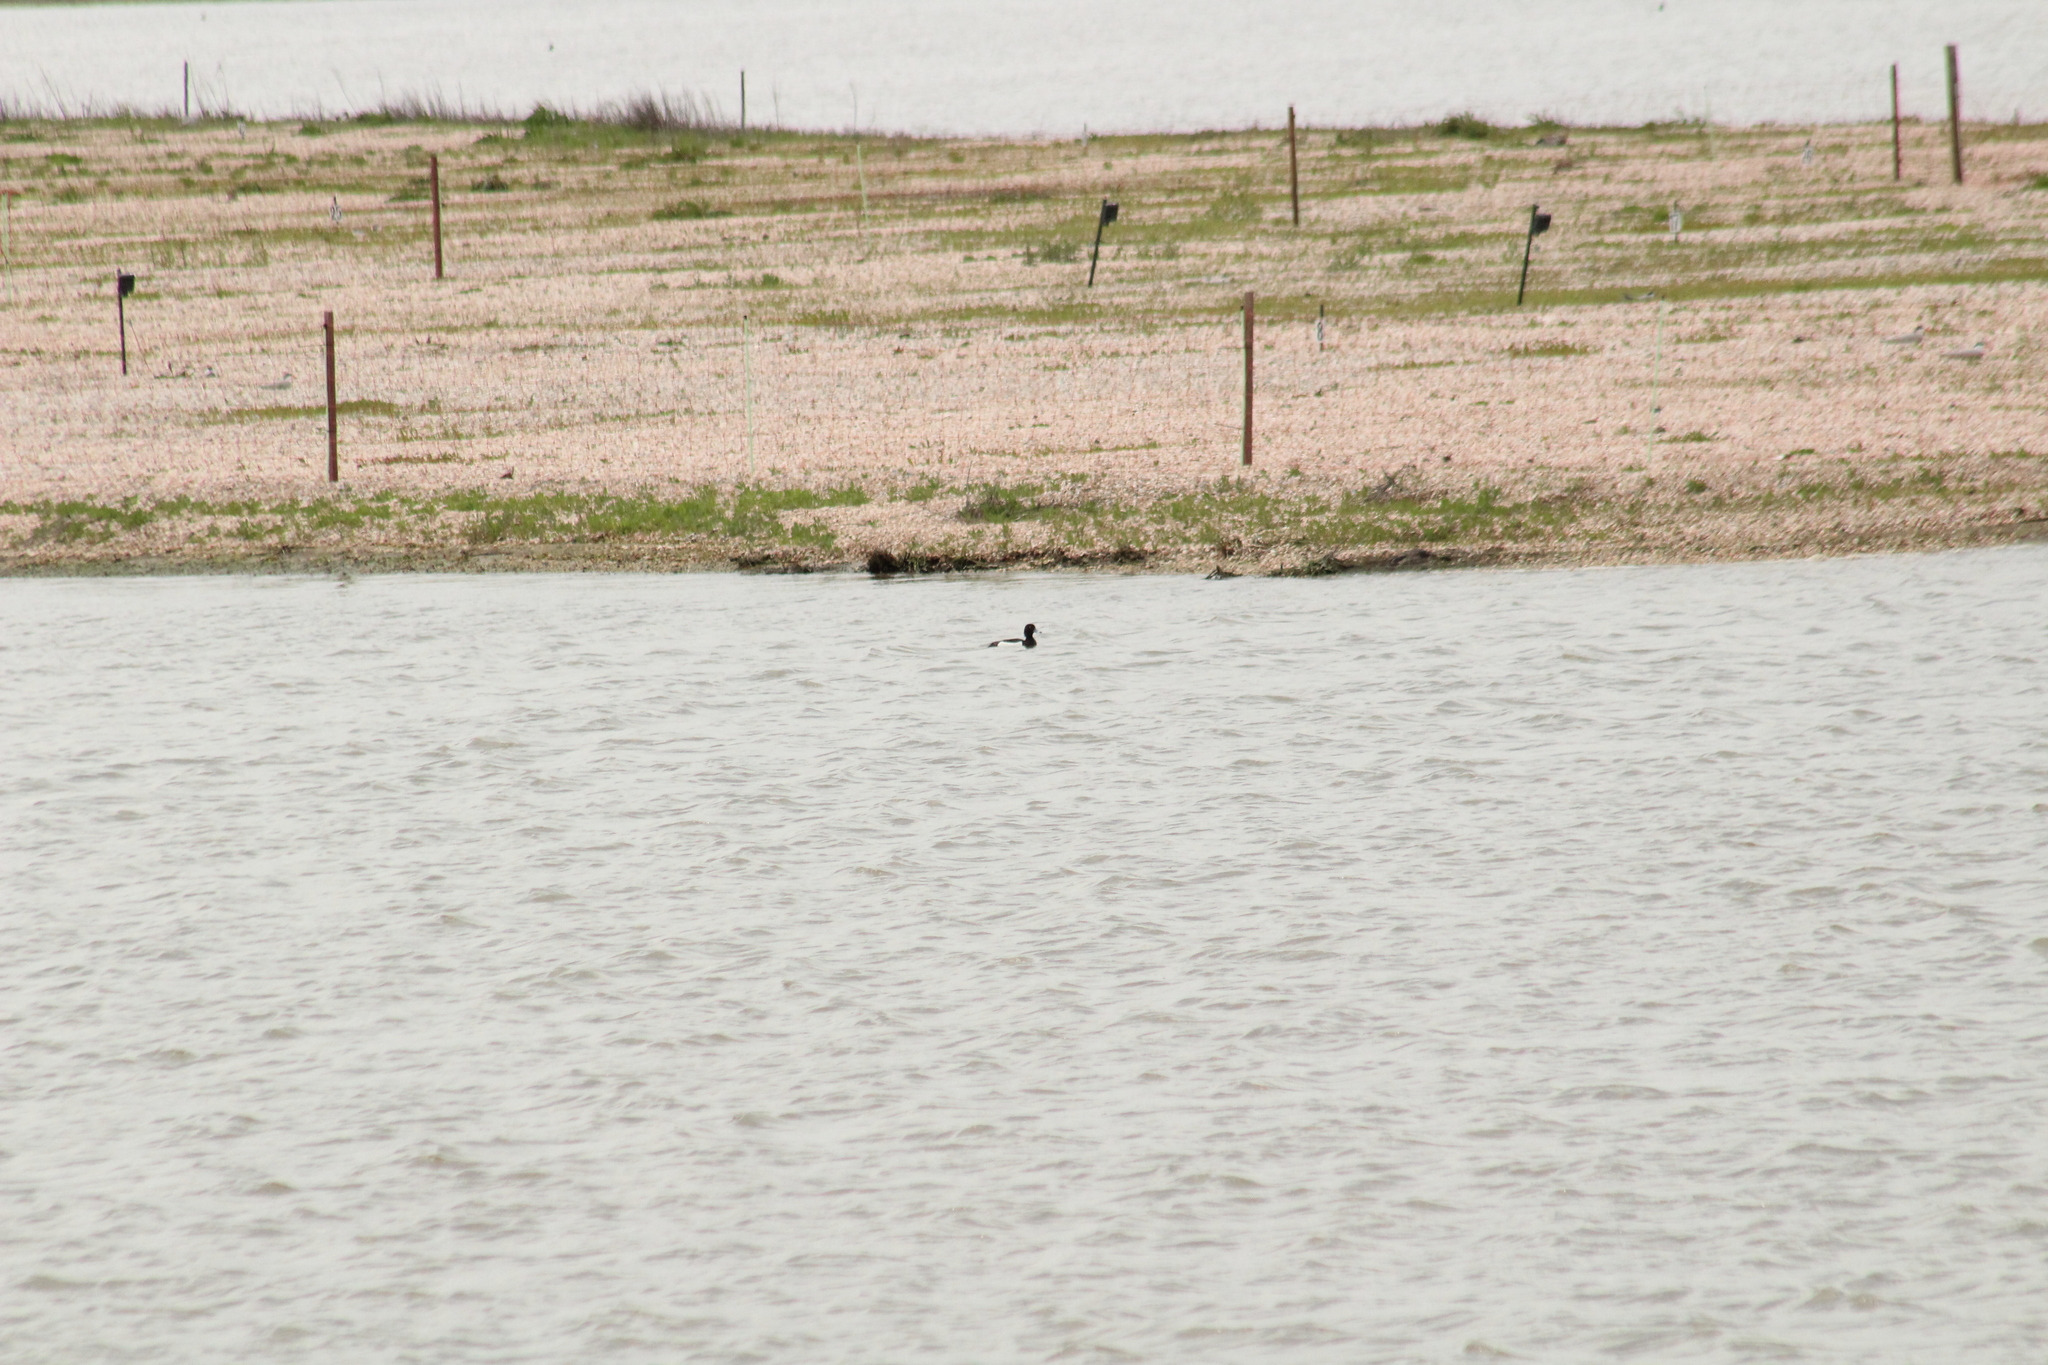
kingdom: Animalia
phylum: Chordata
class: Aves
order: Anseriformes
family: Anatidae
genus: Aythya
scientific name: Aythya fuligula
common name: Tufted duck
